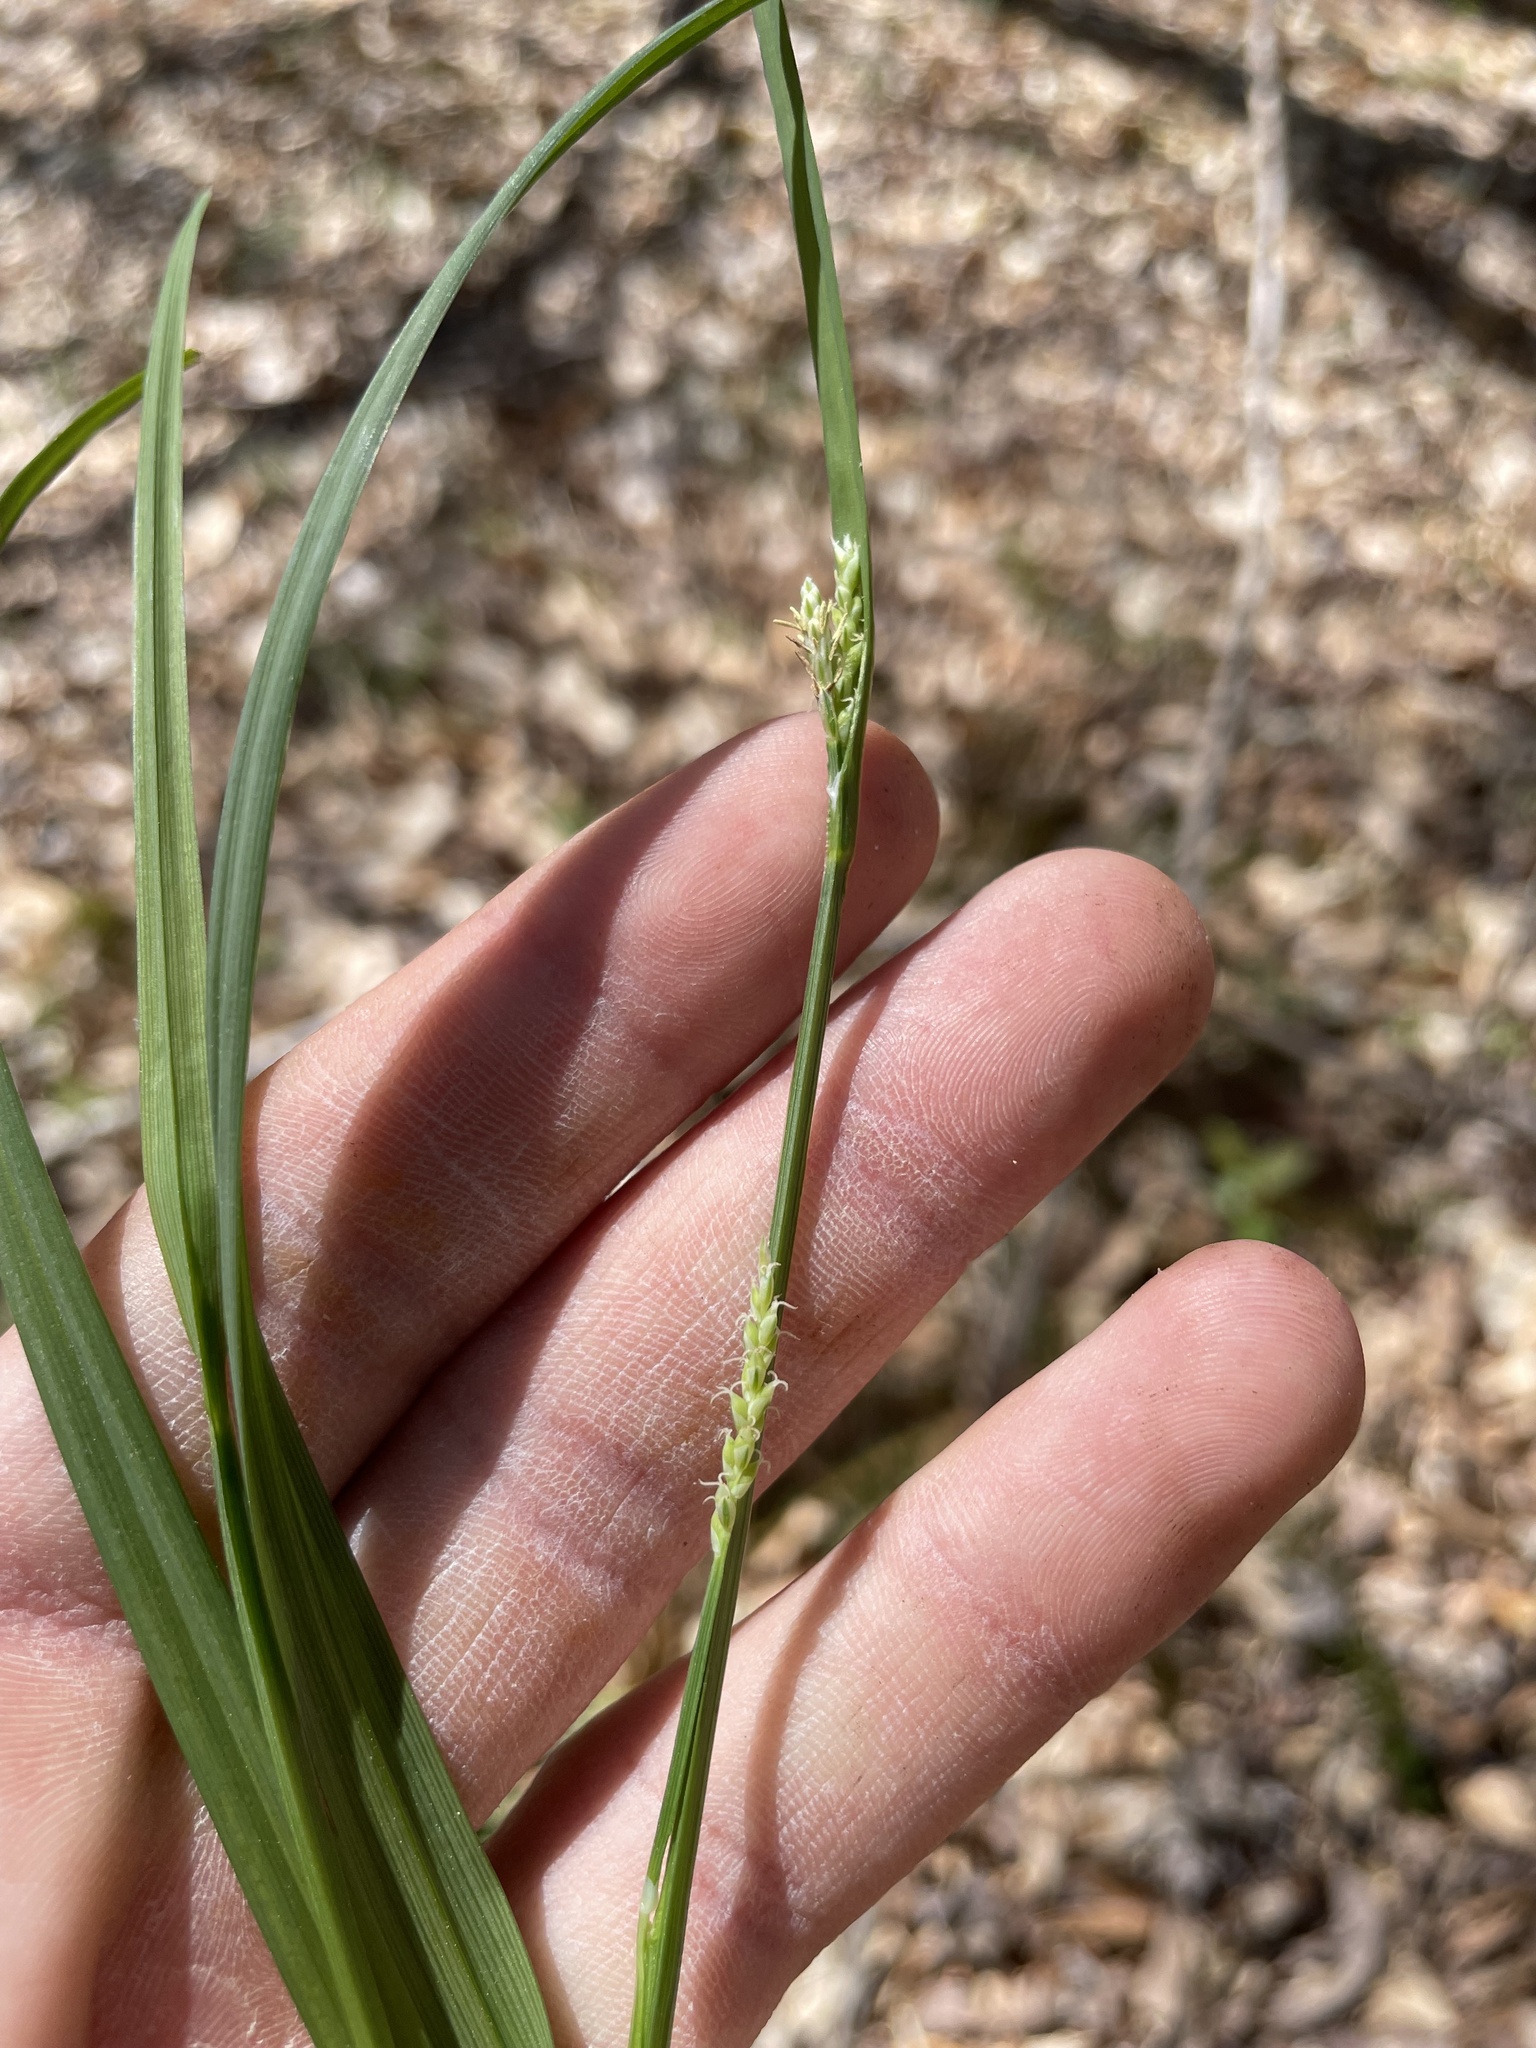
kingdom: Plantae
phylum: Tracheophyta
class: Liliopsida
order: Poales
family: Cyperaceae
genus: Carex
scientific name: Carex laxiflora
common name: Beech wood sedge
